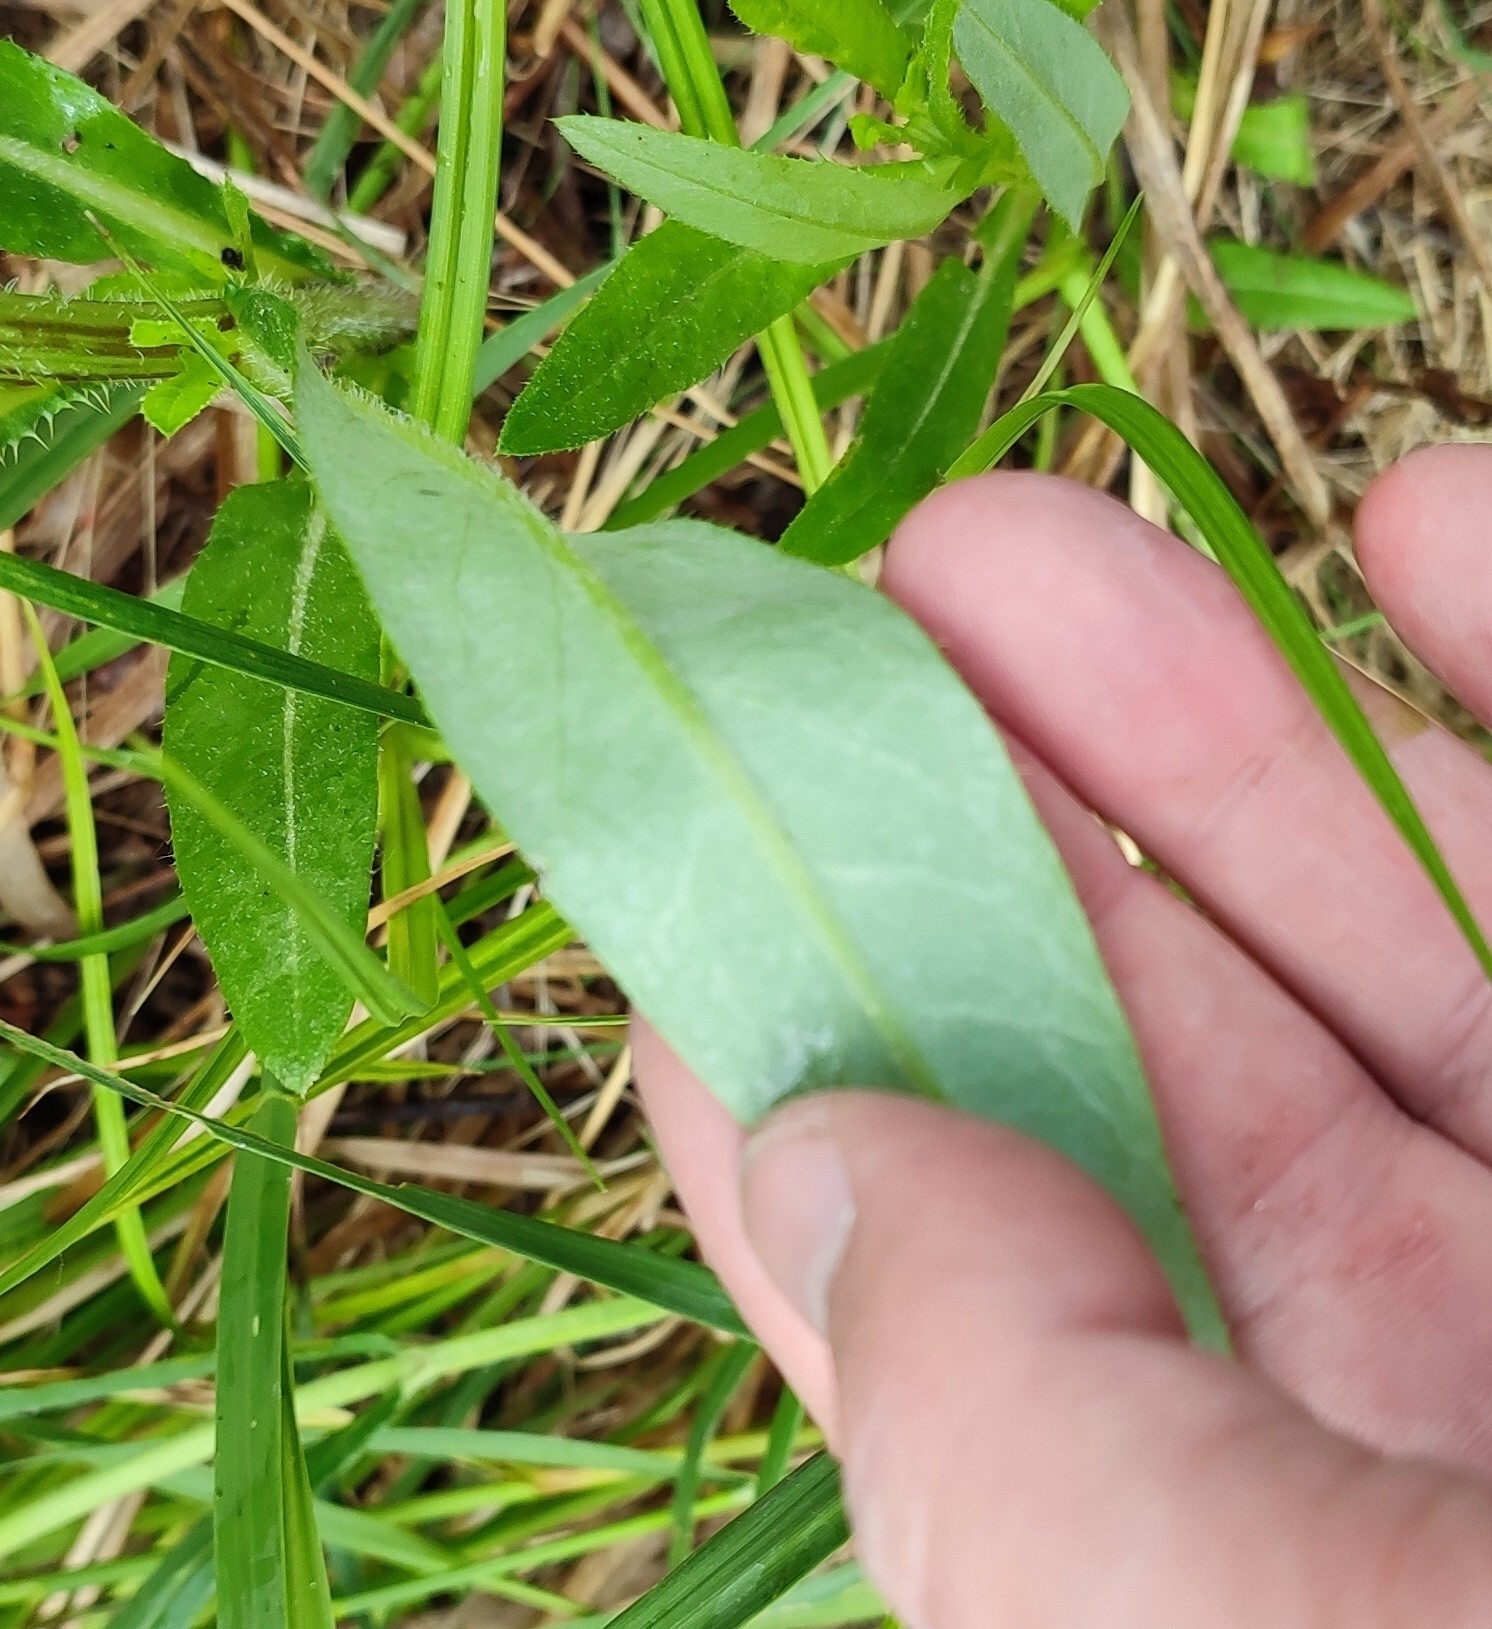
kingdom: Plantae
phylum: Tracheophyta
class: Magnoliopsida
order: Asterales
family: Asteraceae
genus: Cirsium
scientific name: Cirsium arvense
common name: Creeping thistle
